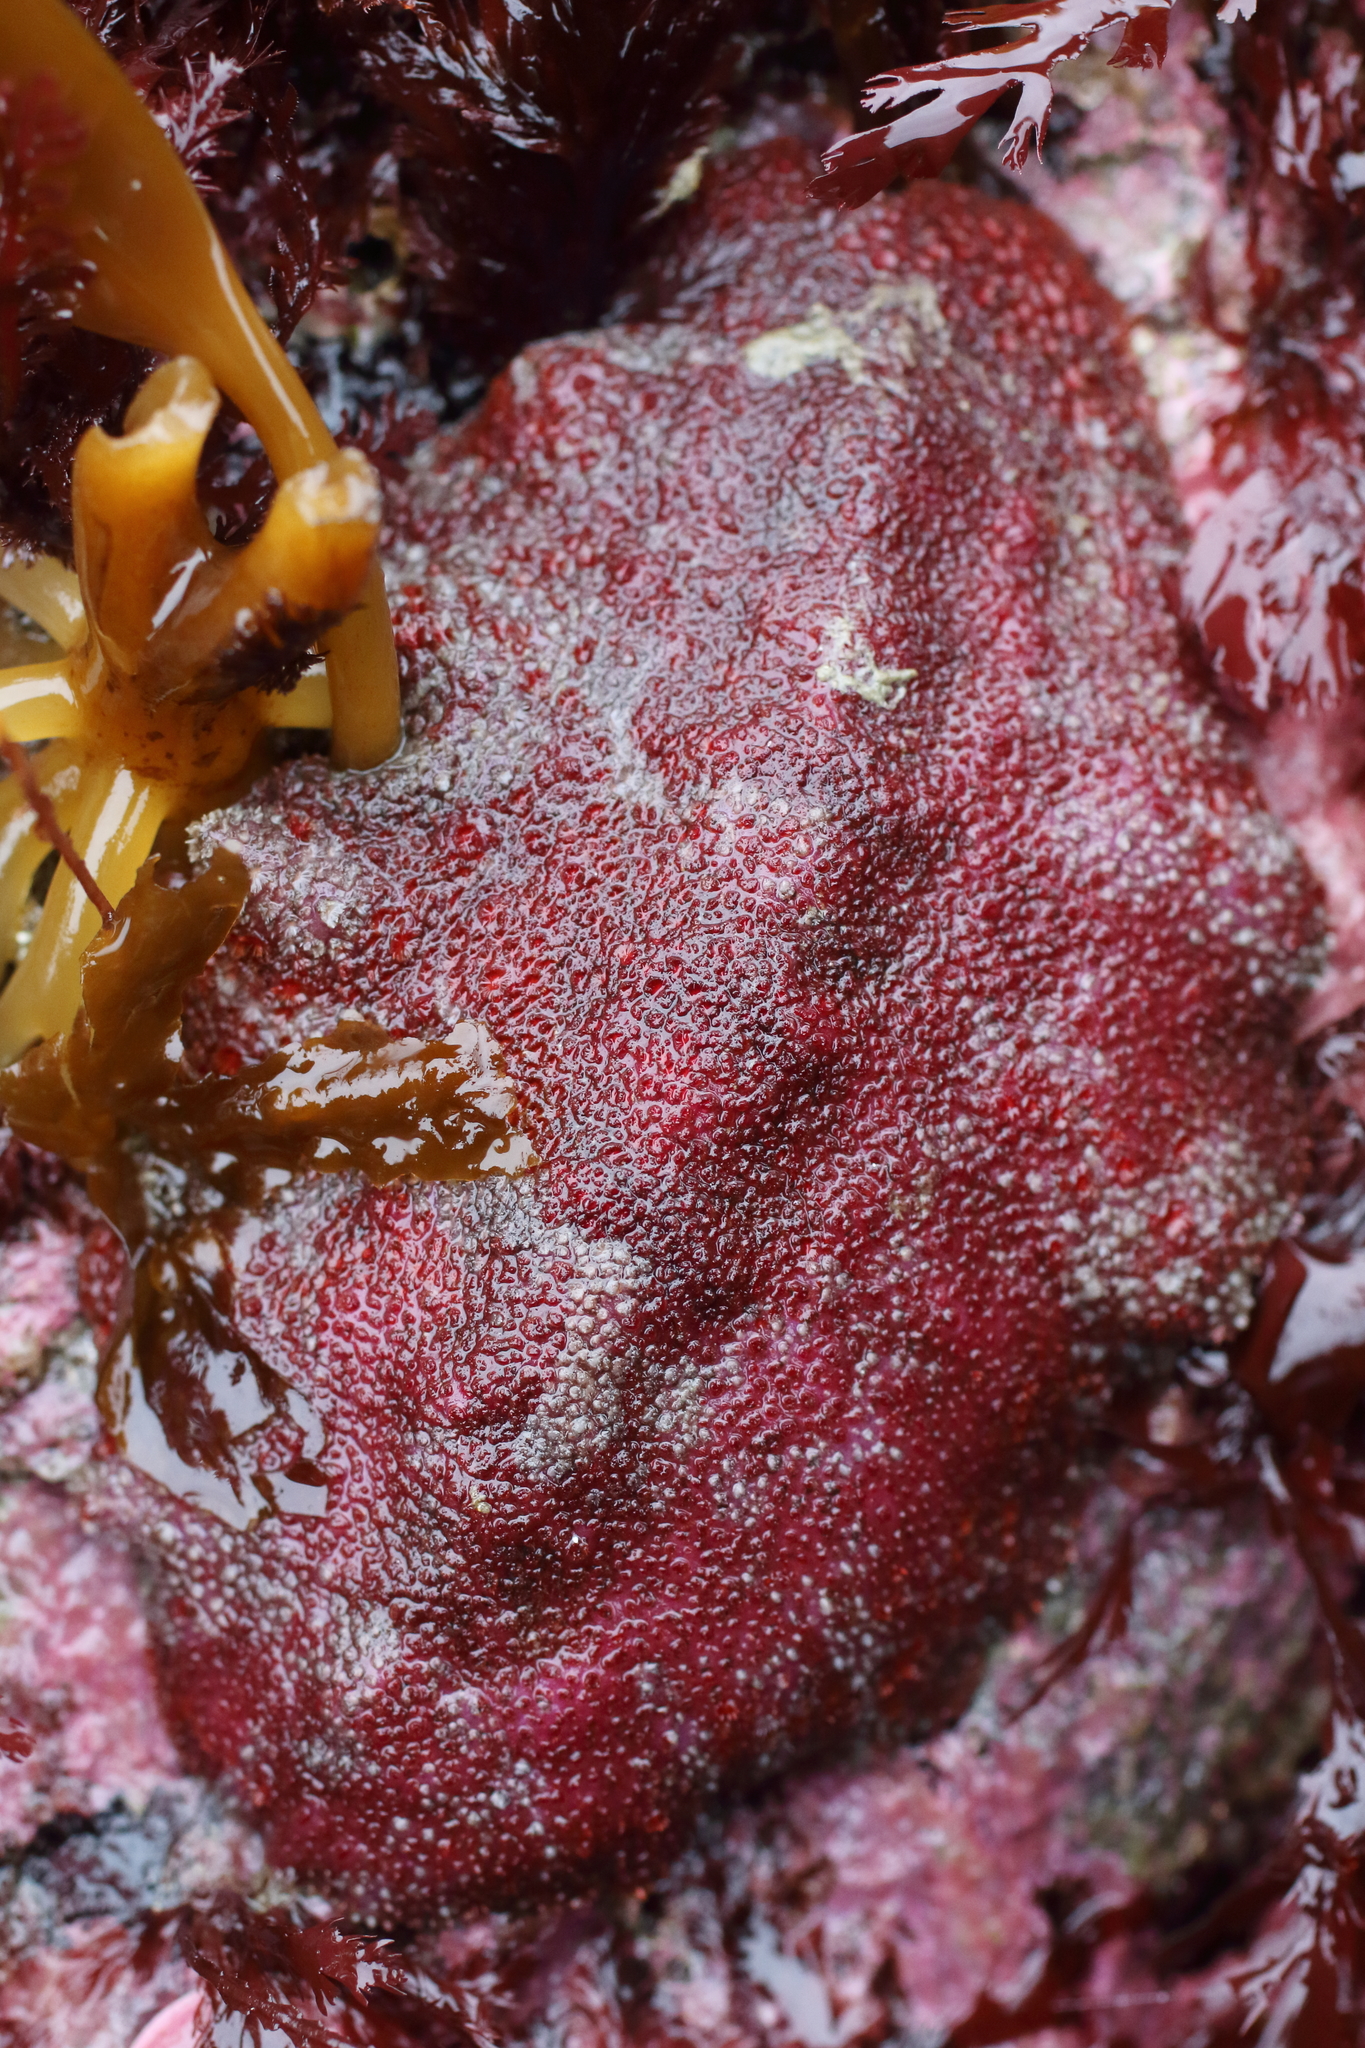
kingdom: Animalia
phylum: Mollusca
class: Polyplacophora
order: Chitonida
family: Acanthochitonidae
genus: Cryptochiton
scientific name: Cryptochiton stelleri
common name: Giant pacific chiton
